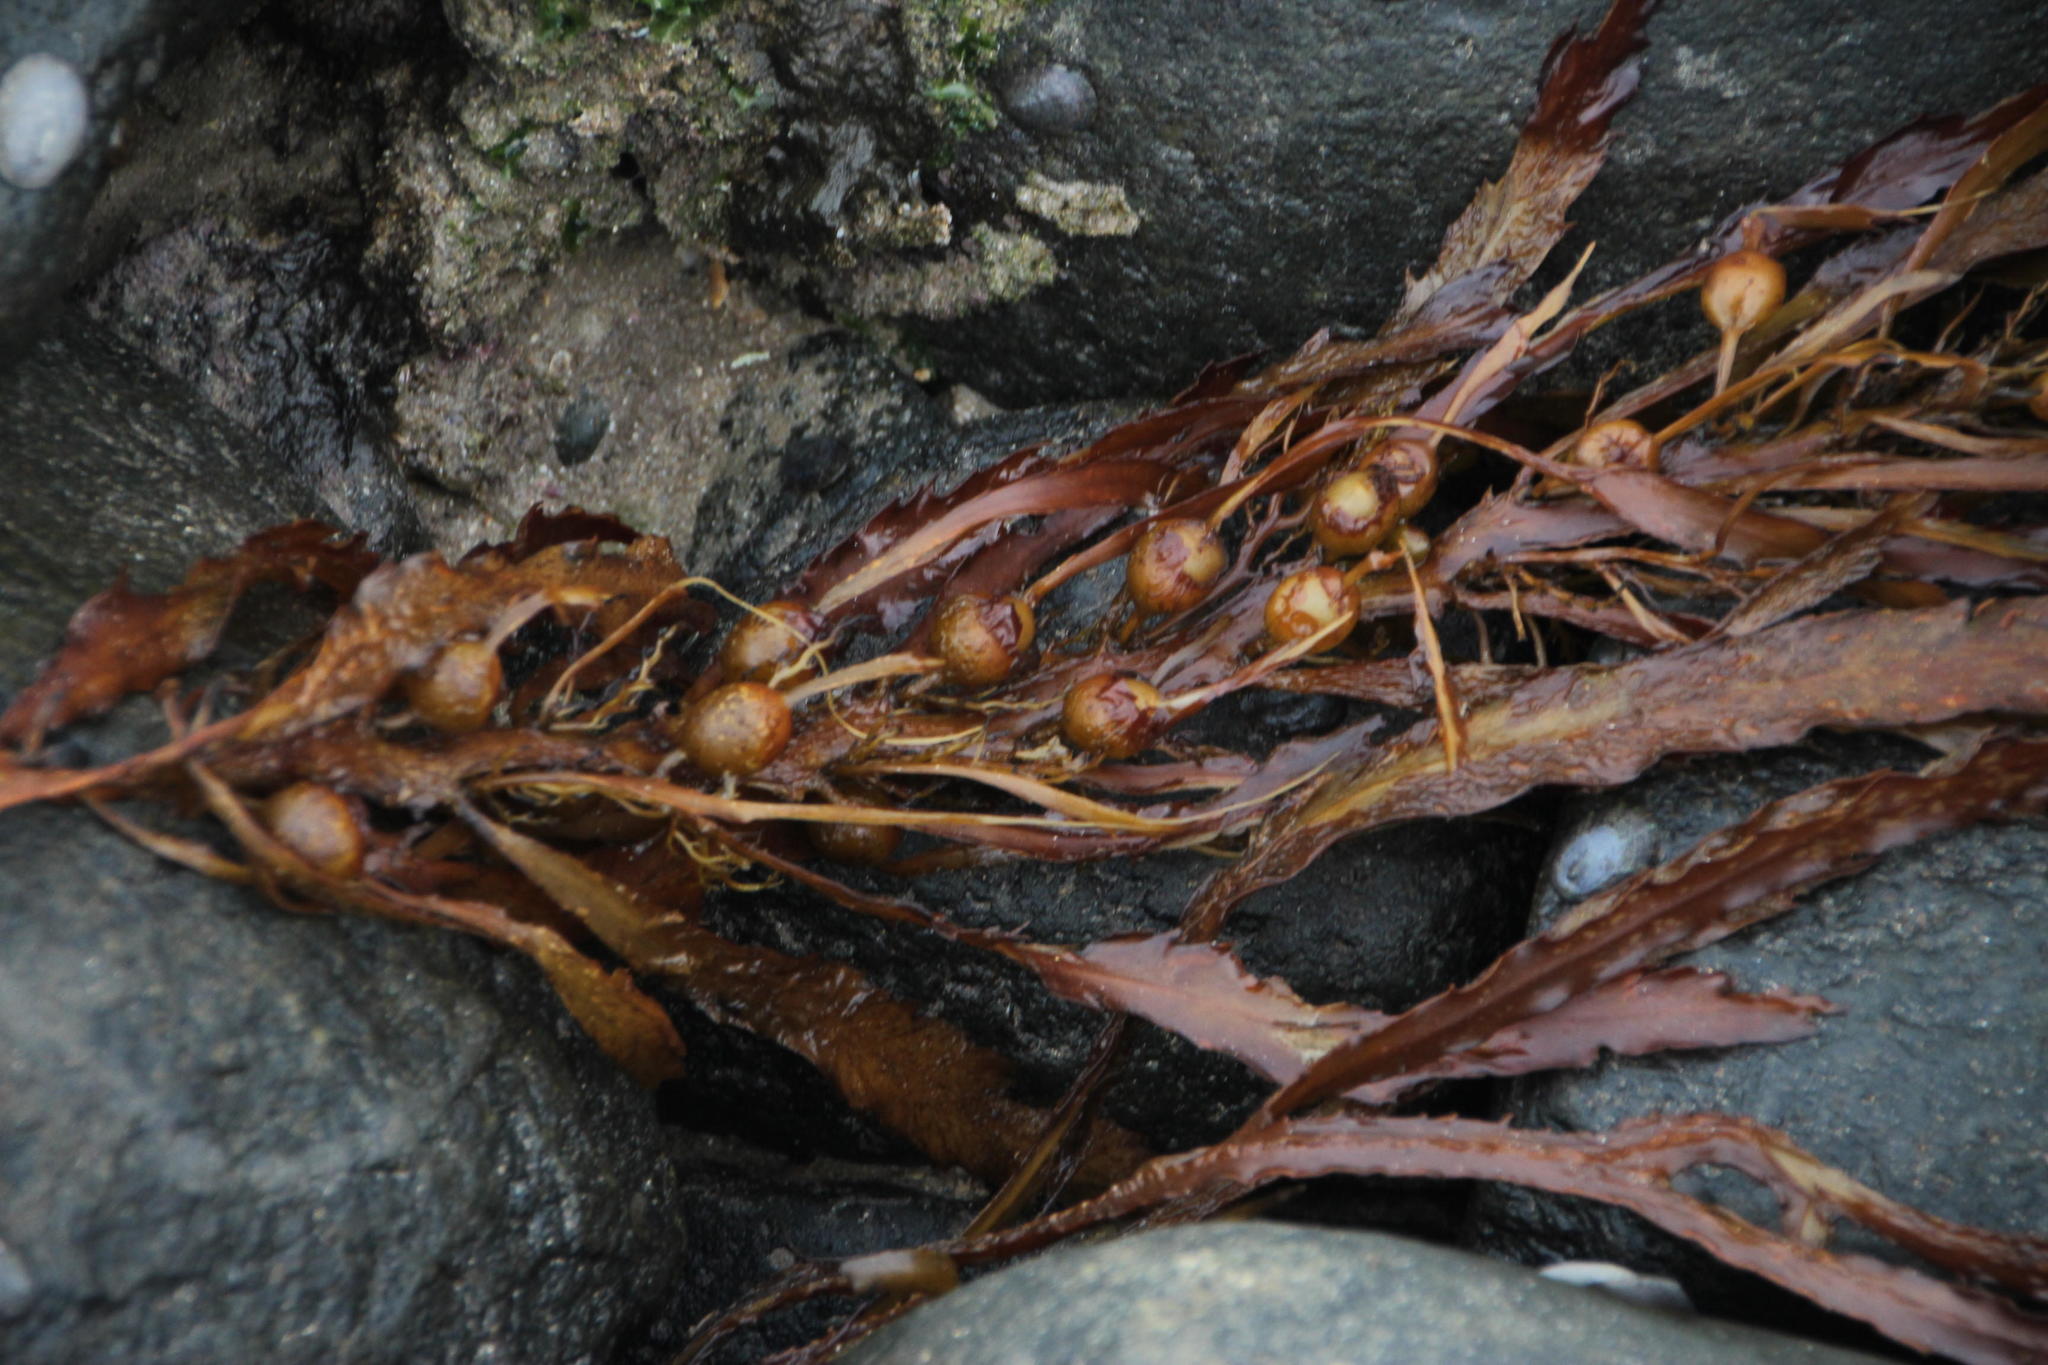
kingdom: Chromista
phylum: Ochrophyta
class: Phaeophyceae
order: Fucales
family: Sargassaceae
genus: Anthophycus
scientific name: Anthophycus
